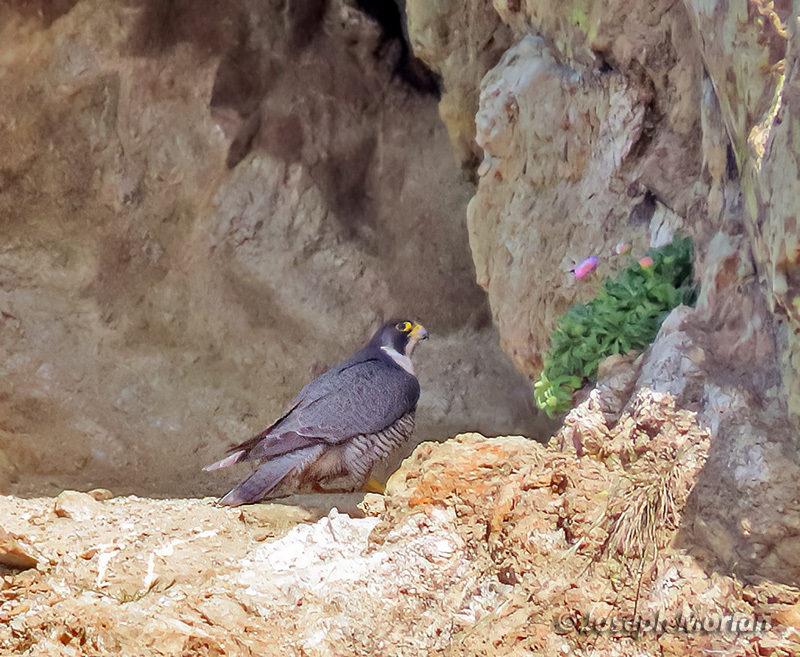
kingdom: Animalia
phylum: Chordata
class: Aves
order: Falconiformes
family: Falconidae
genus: Falco
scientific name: Falco peregrinus
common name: Peregrine falcon
